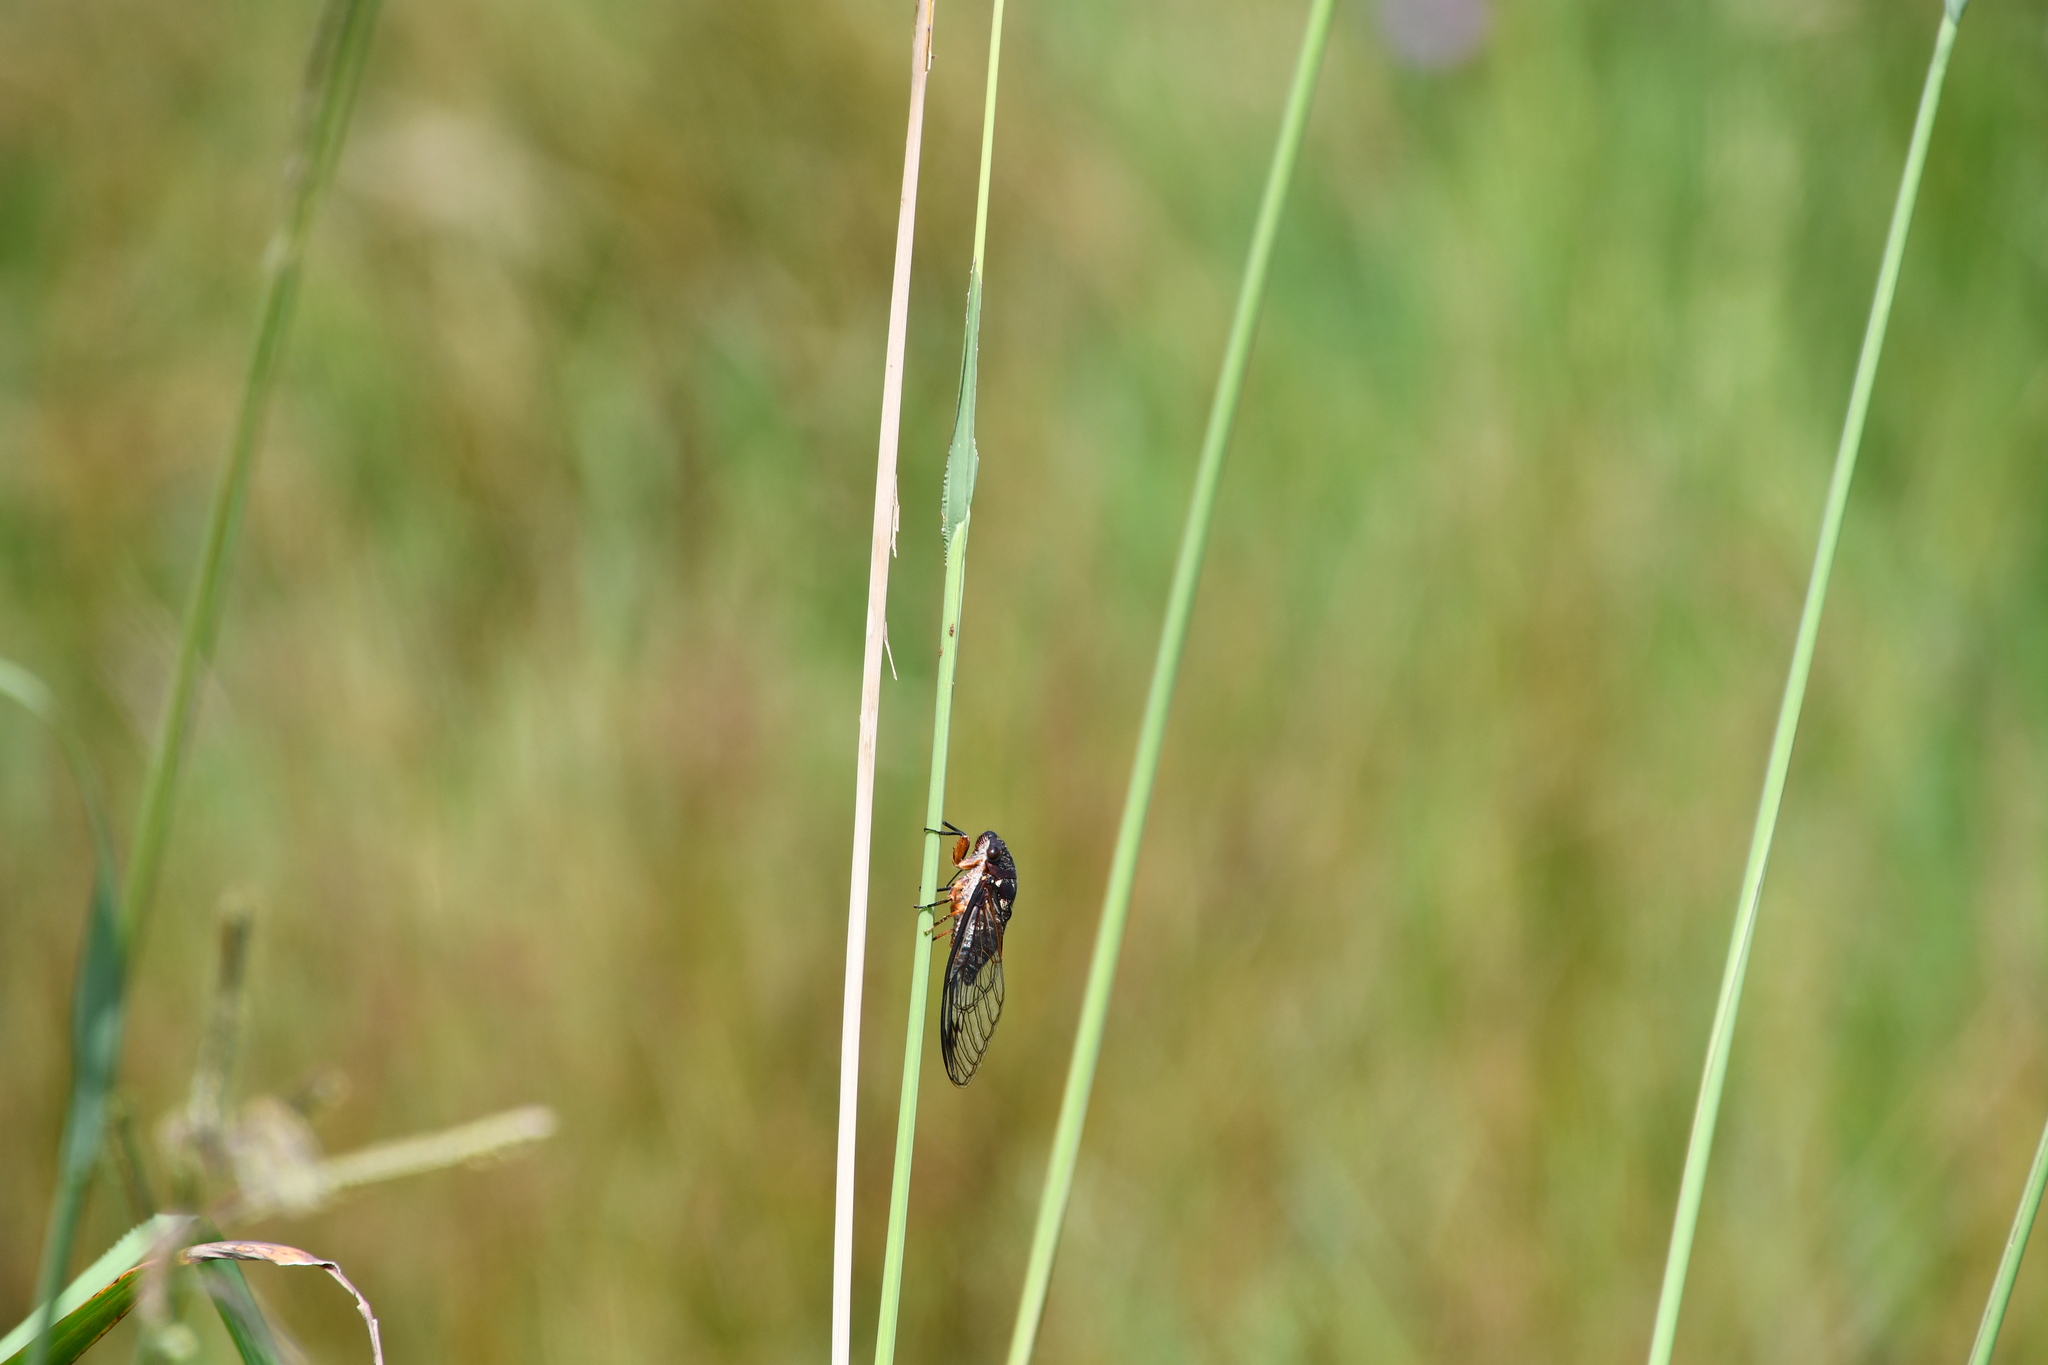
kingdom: Animalia
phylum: Arthropoda
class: Insecta
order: Hemiptera
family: Cicadidae
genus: Psaltoda
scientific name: Psaltoda plaga
